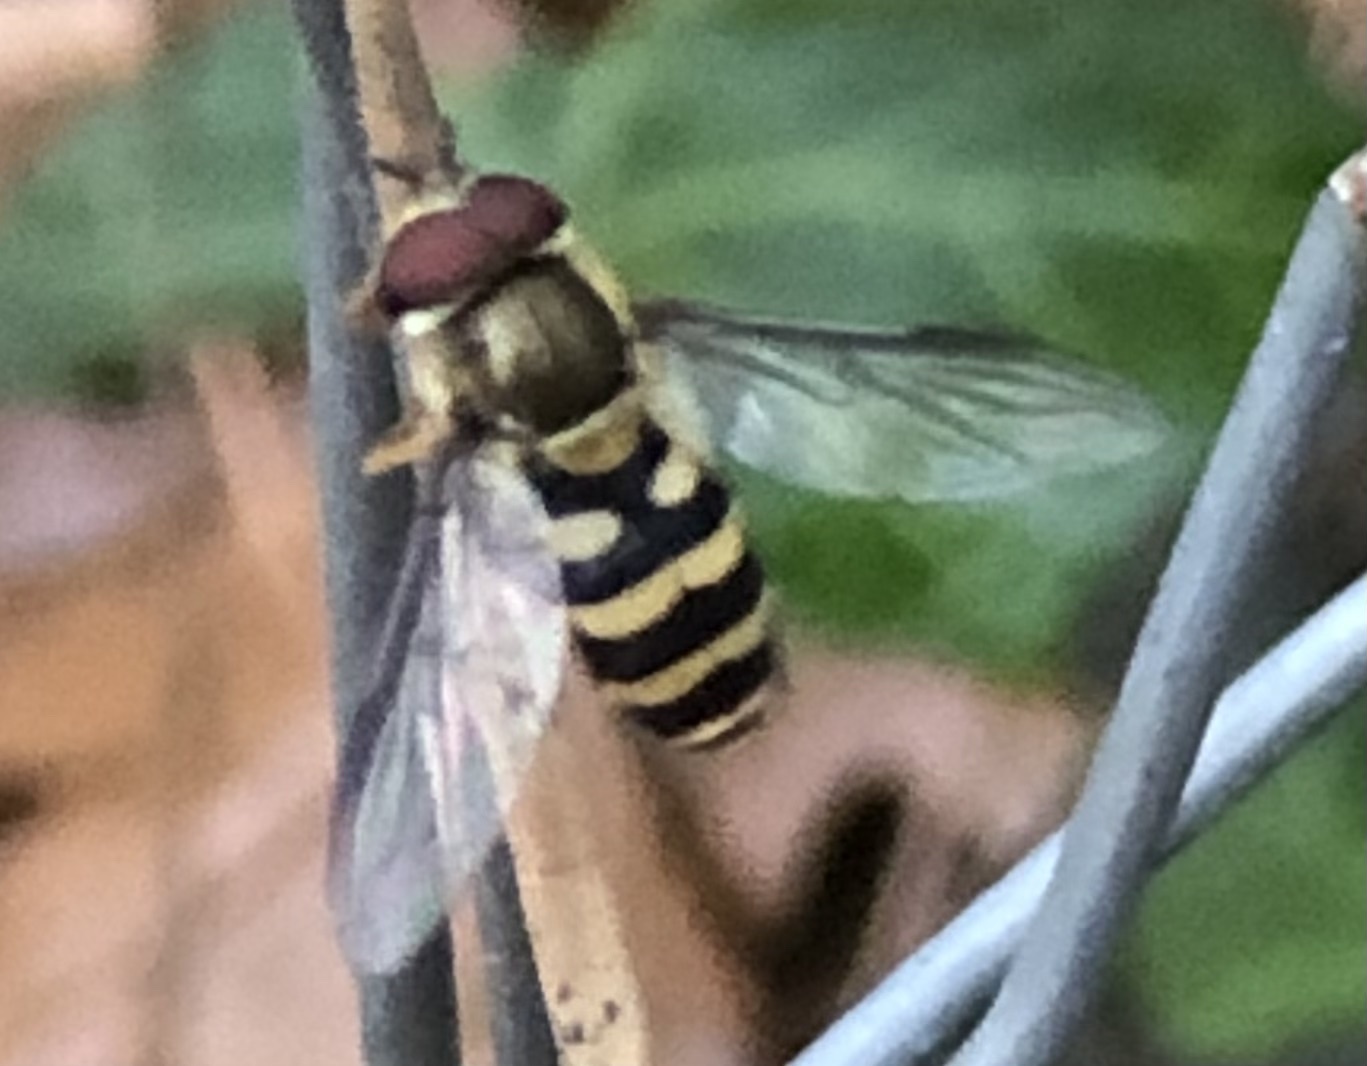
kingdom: Animalia
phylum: Arthropoda
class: Insecta
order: Diptera
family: Syrphidae
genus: Syrphus
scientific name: Syrphus
